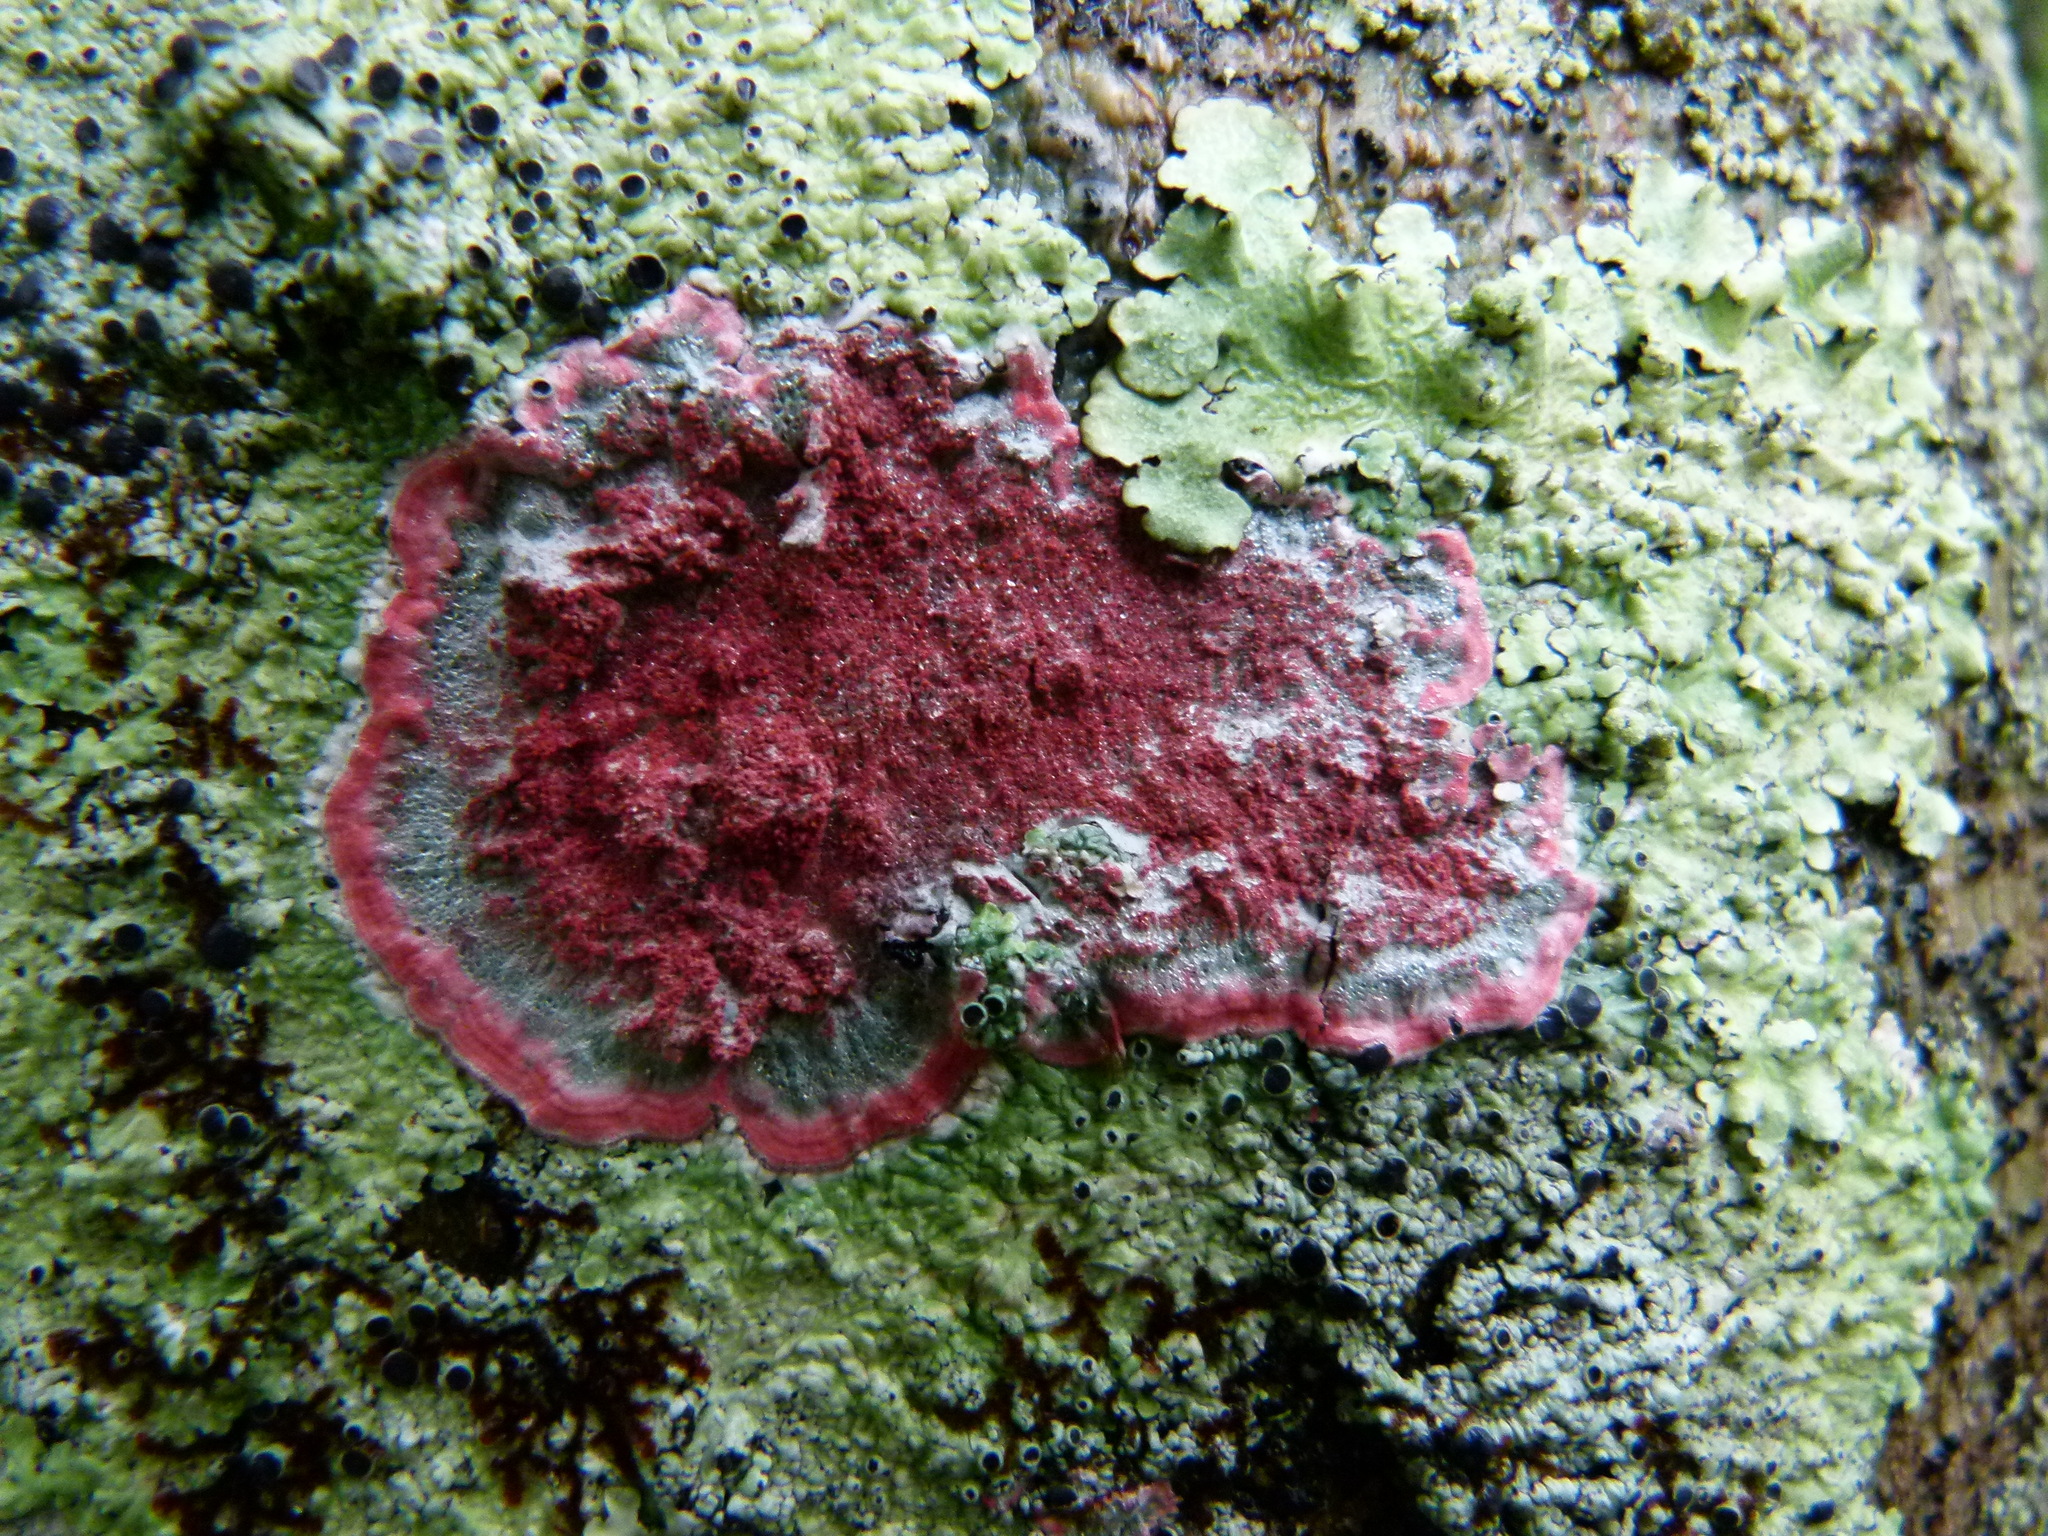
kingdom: Fungi
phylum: Ascomycota
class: Arthoniomycetes
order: Arthoniales
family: Arthoniaceae
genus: Herpothallon
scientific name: Herpothallon rubrocinctum
